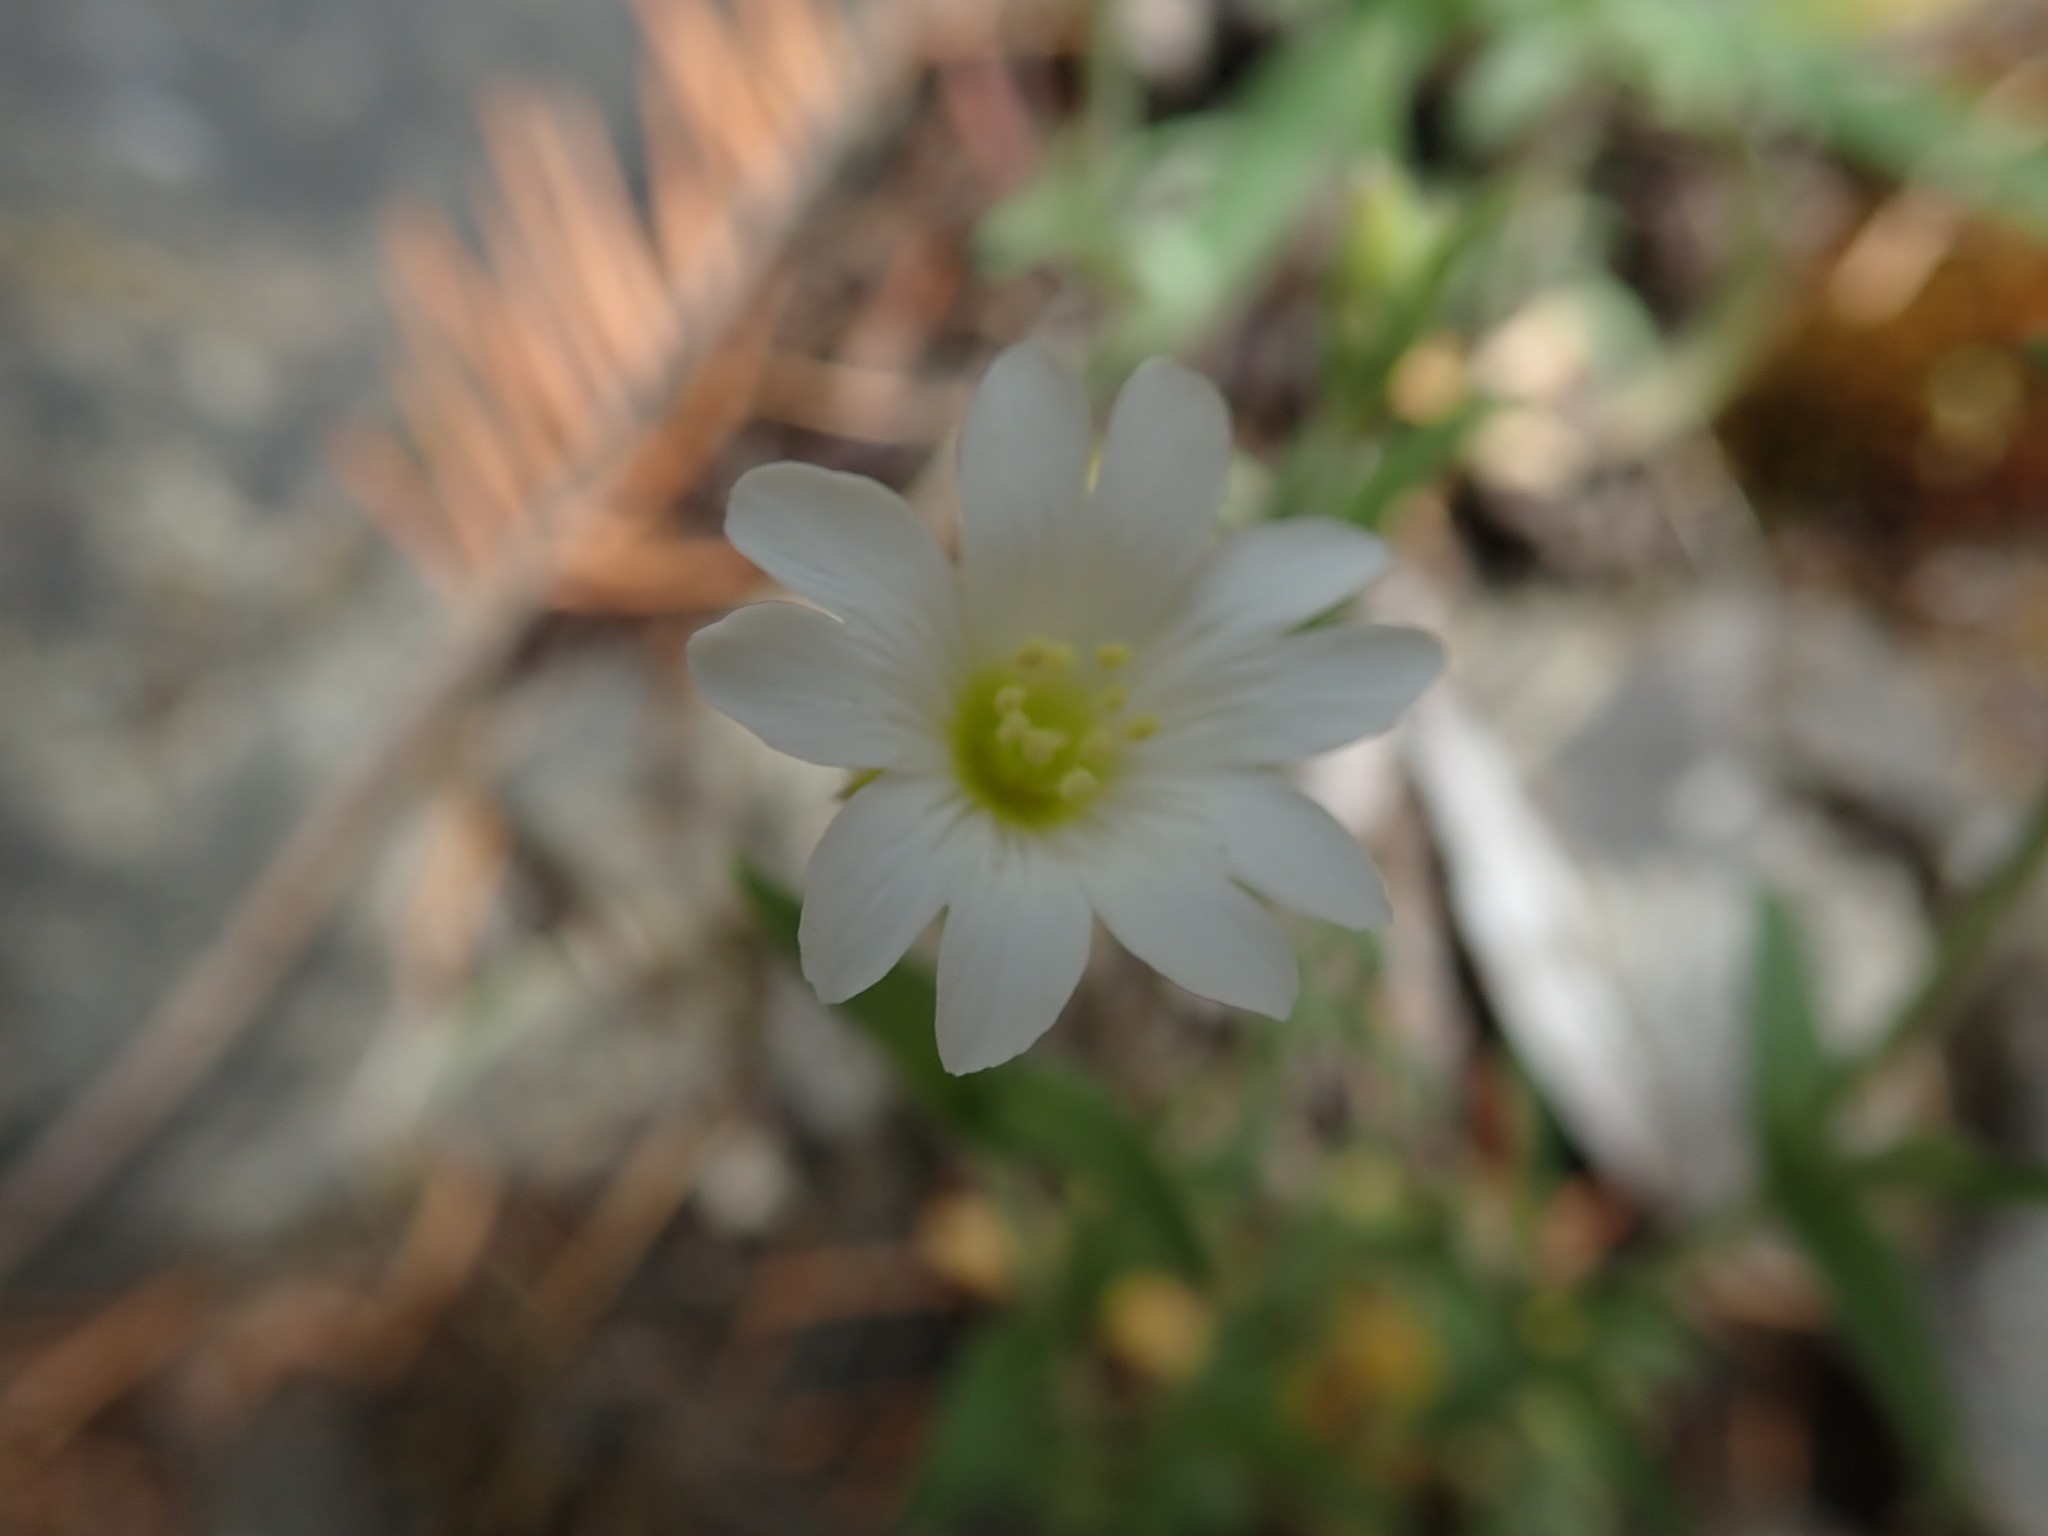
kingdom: Plantae
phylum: Tracheophyta
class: Magnoliopsida
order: Caryophyllales
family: Caryophyllaceae
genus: Cerastium
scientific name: Cerastium arvense
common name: Field mouse-ear
